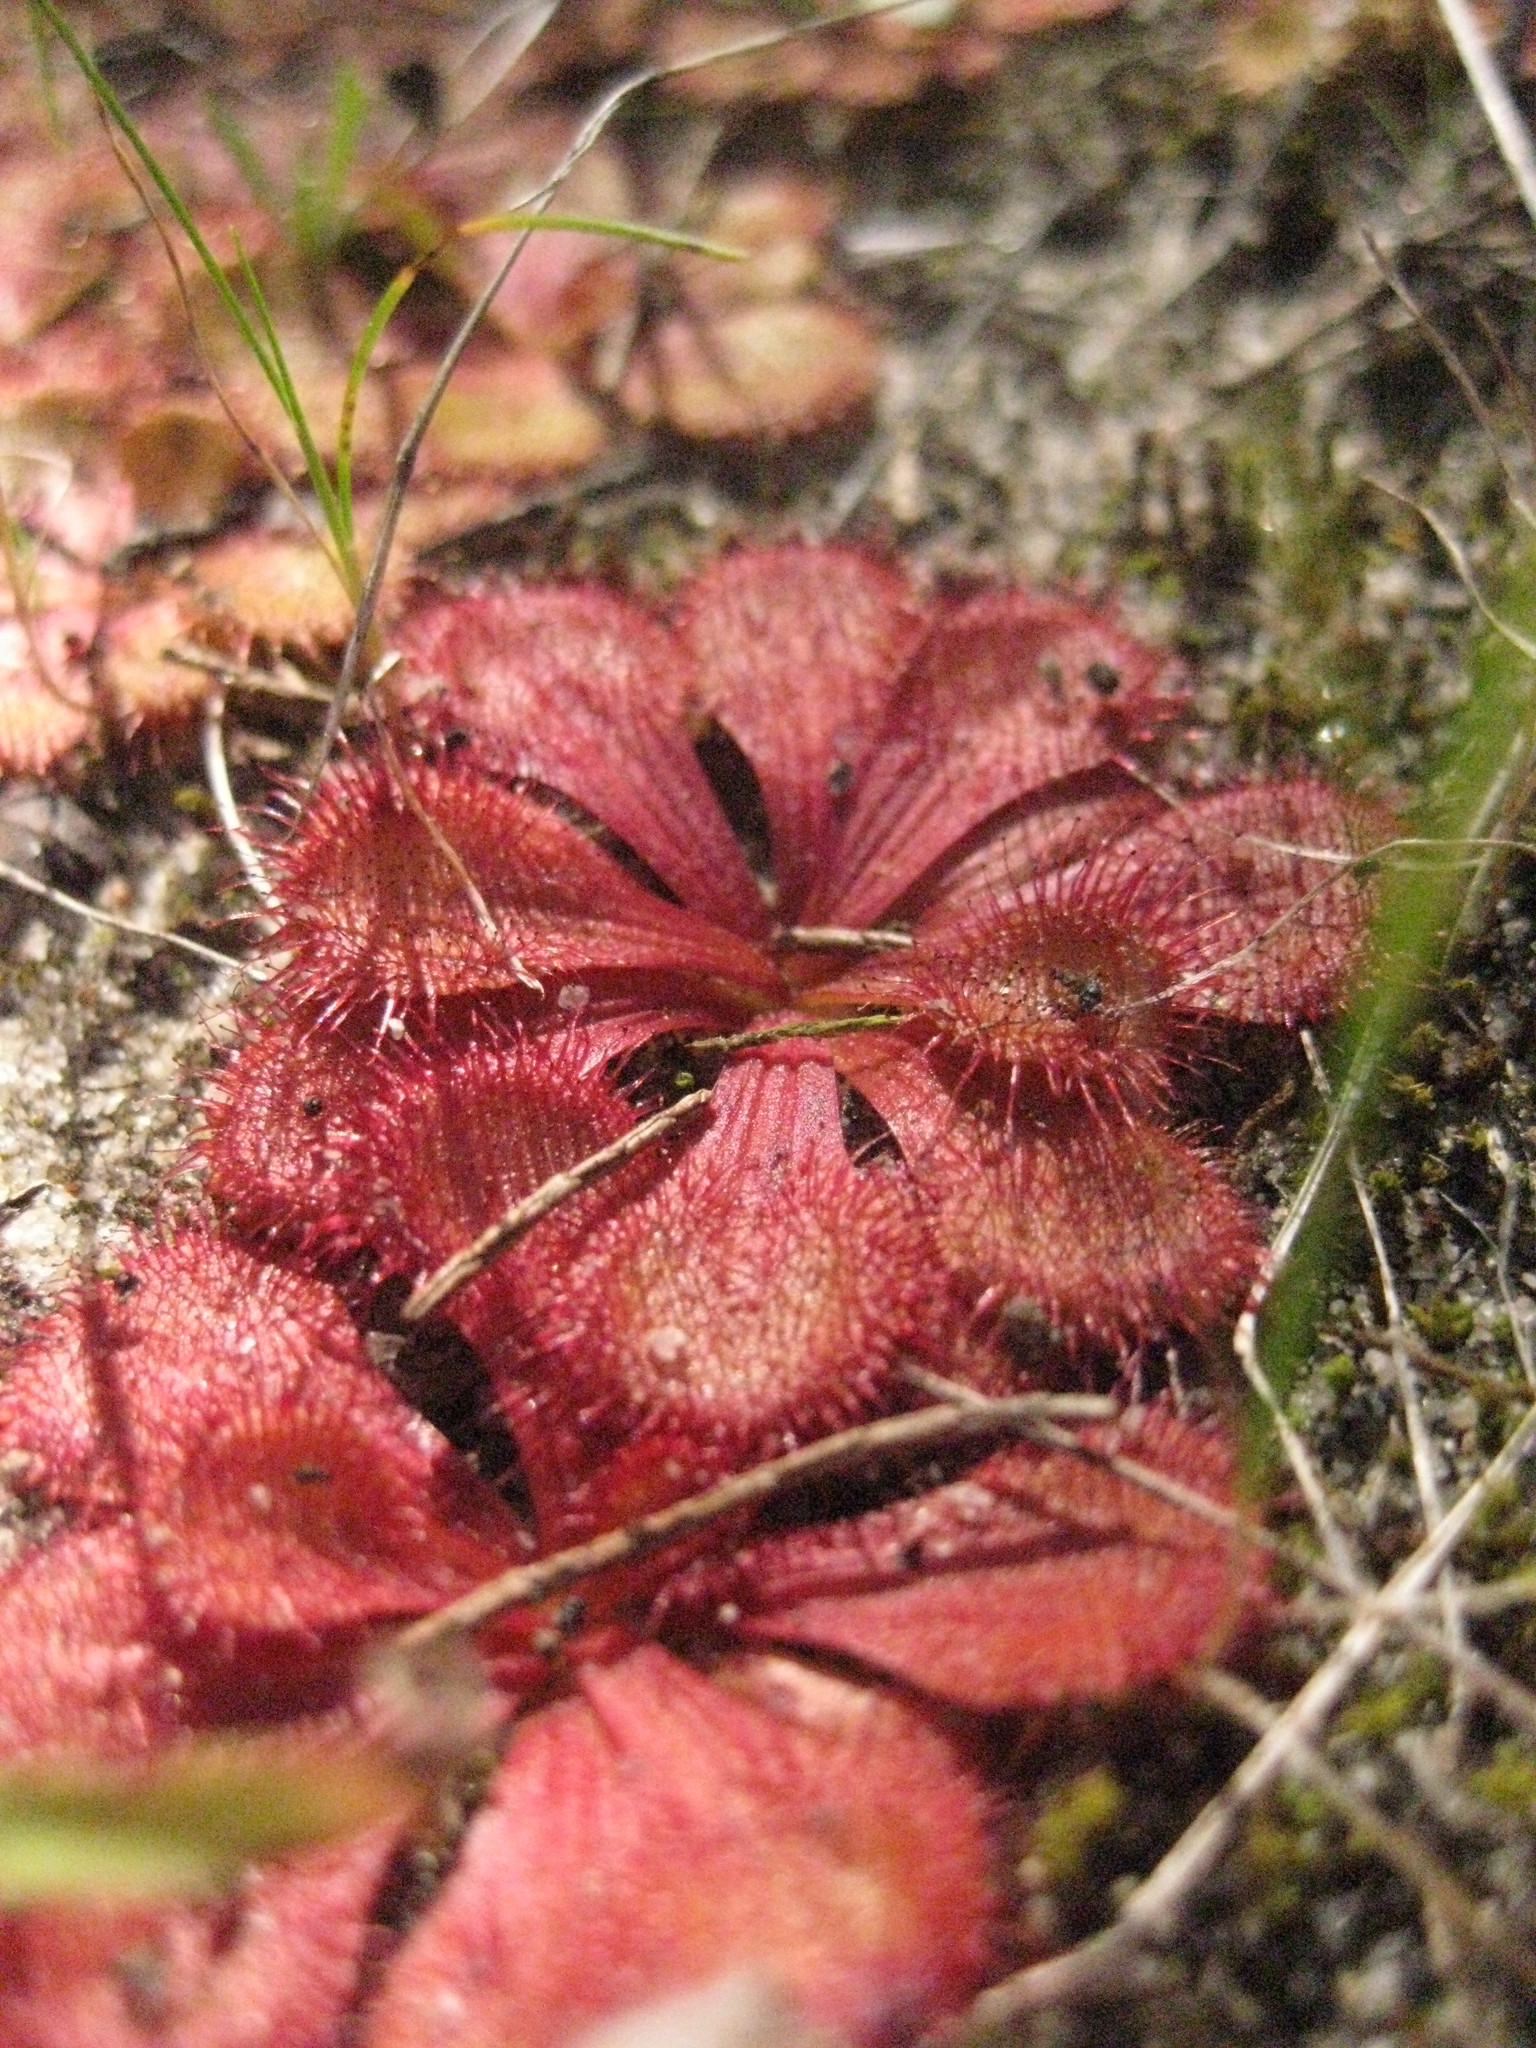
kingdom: Plantae
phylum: Tracheophyta
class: Magnoliopsida
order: Caryophyllales
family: Droseraceae
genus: Drosera
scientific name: Drosera aberrans
